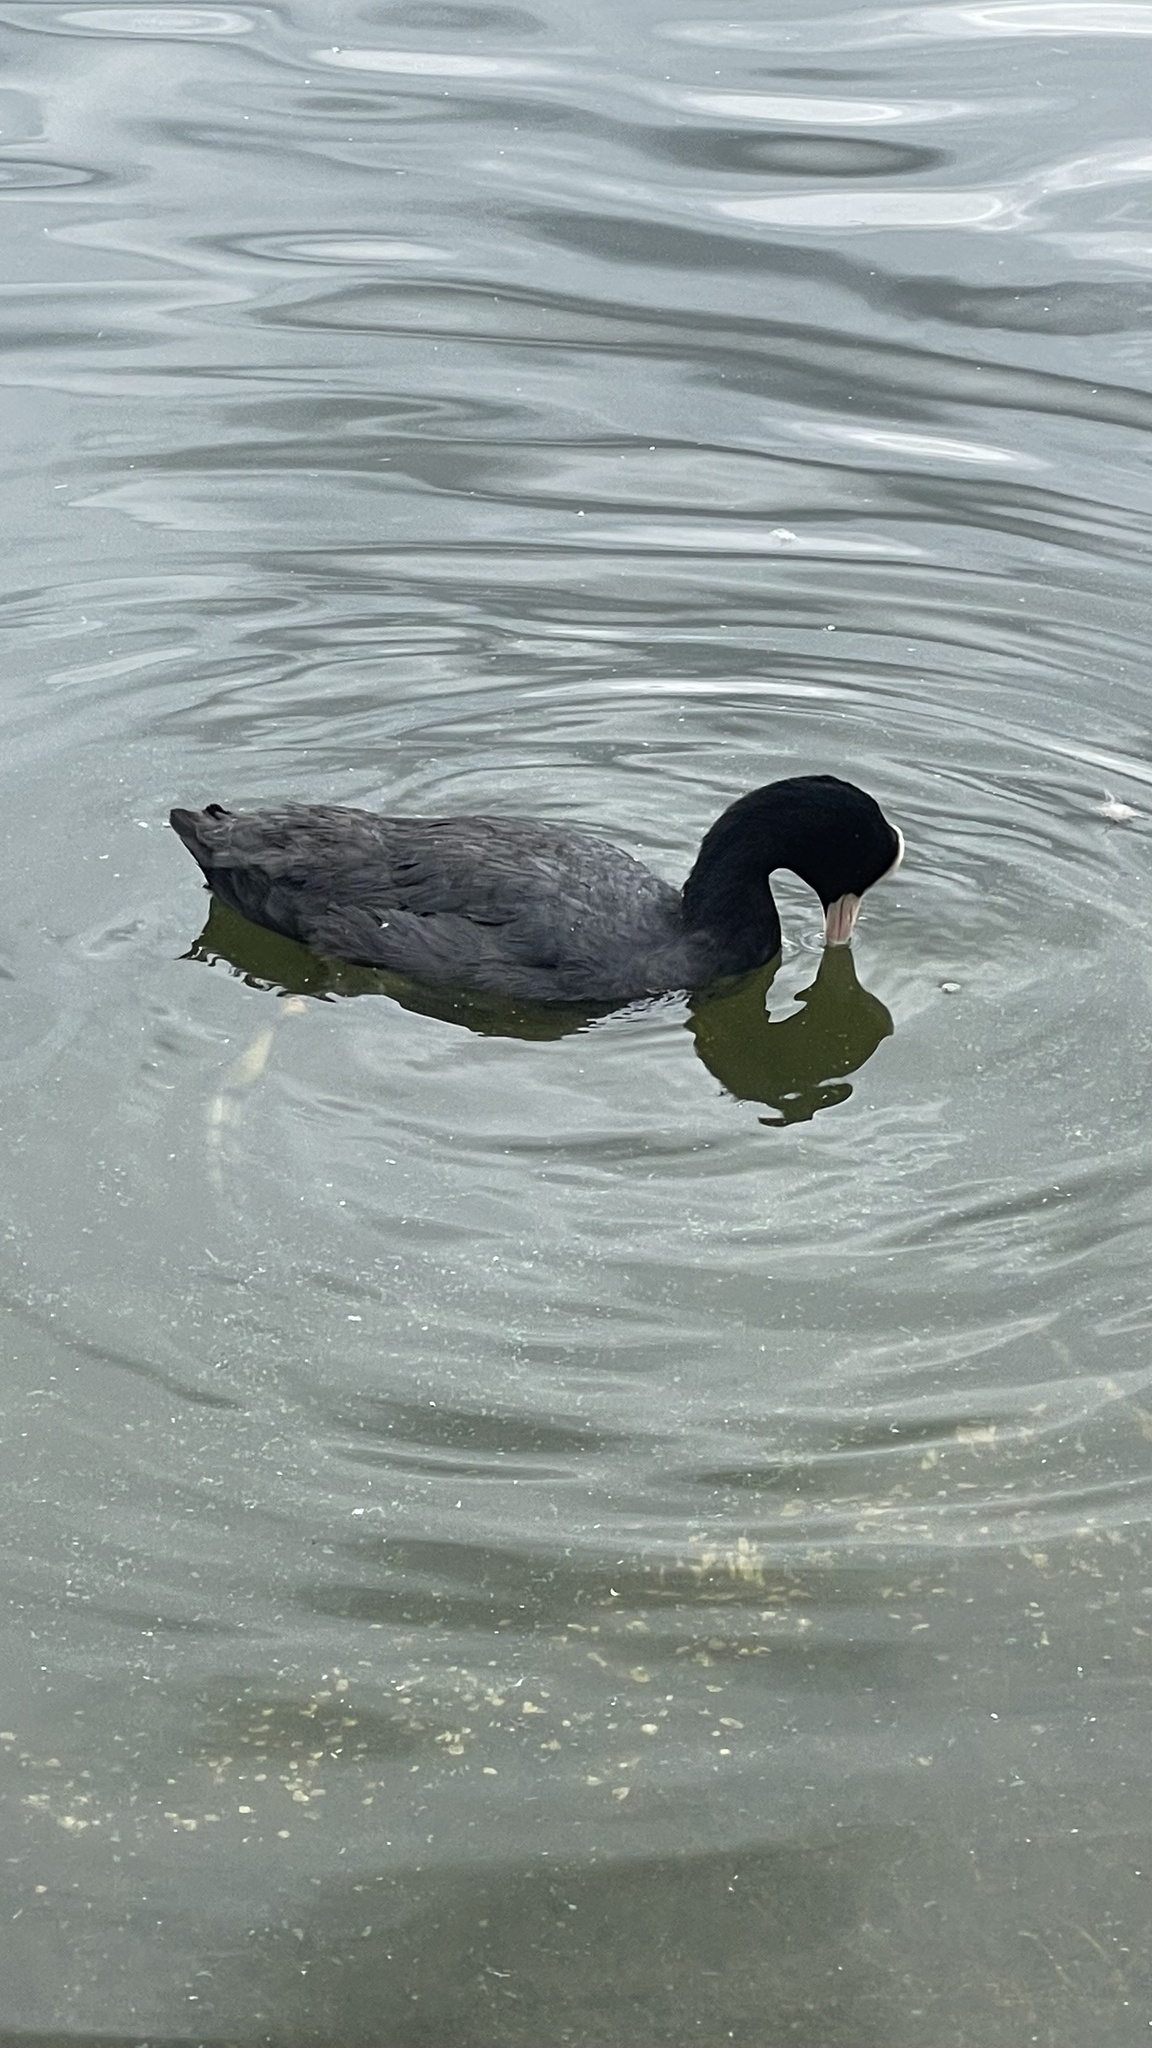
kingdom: Animalia
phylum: Chordata
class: Aves
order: Gruiformes
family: Rallidae
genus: Fulica
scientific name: Fulica atra
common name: Eurasian coot
